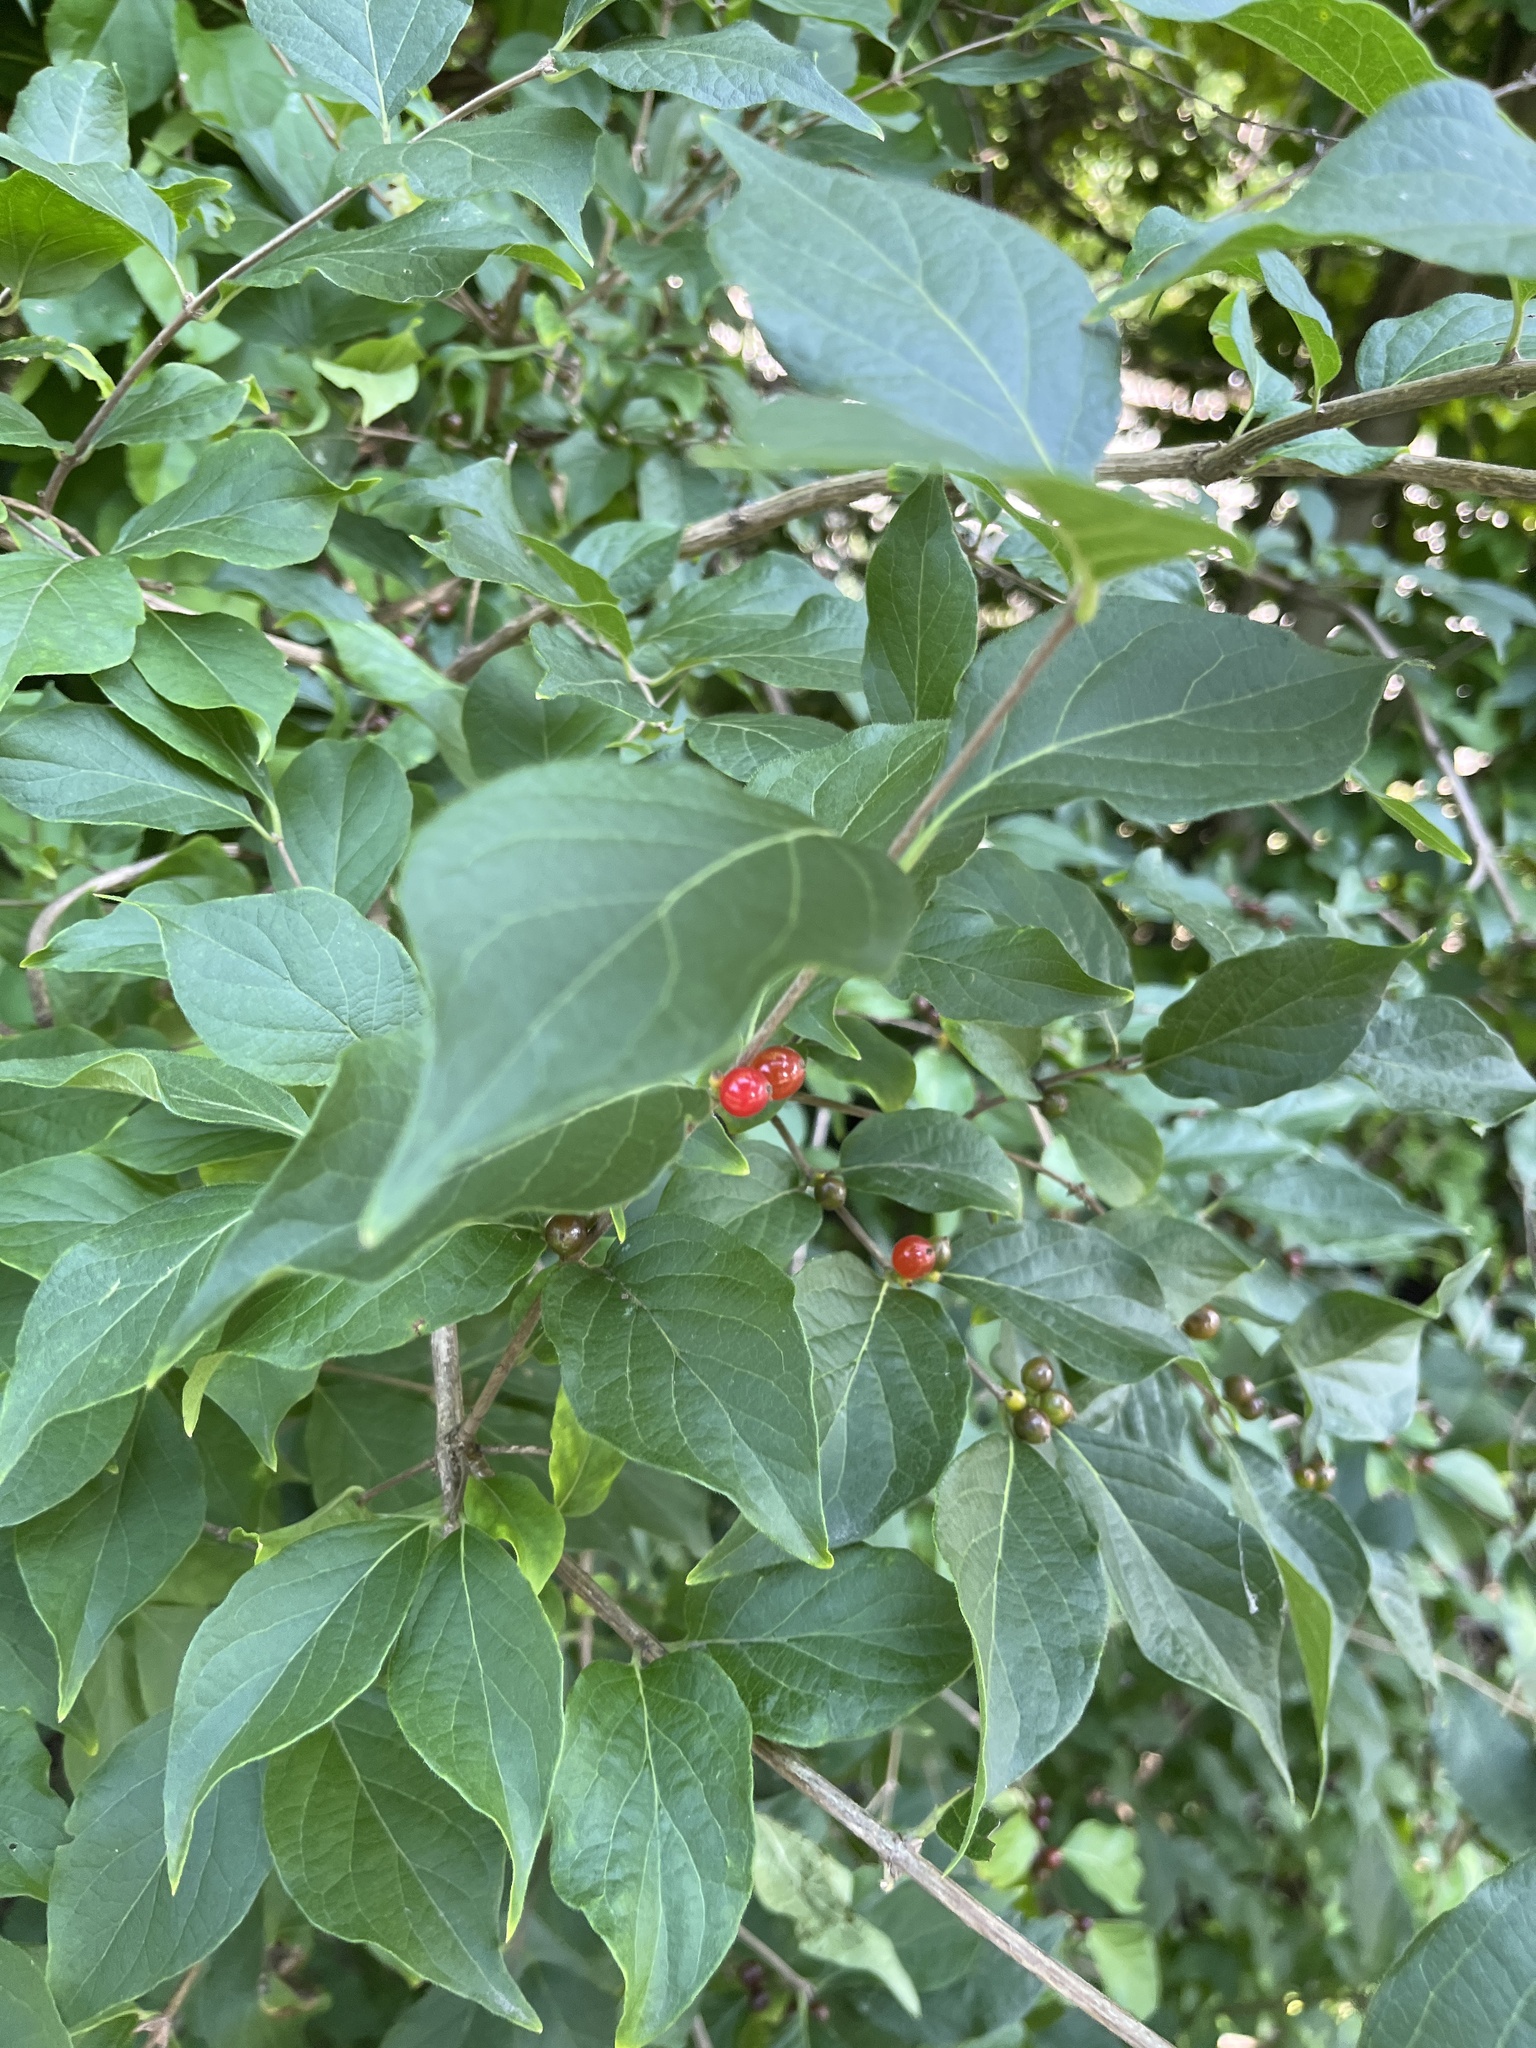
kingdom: Plantae
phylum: Tracheophyta
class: Magnoliopsida
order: Dipsacales
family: Caprifoliaceae
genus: Lonicera
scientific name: Lonicera maackii
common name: Amur honeysuckle
